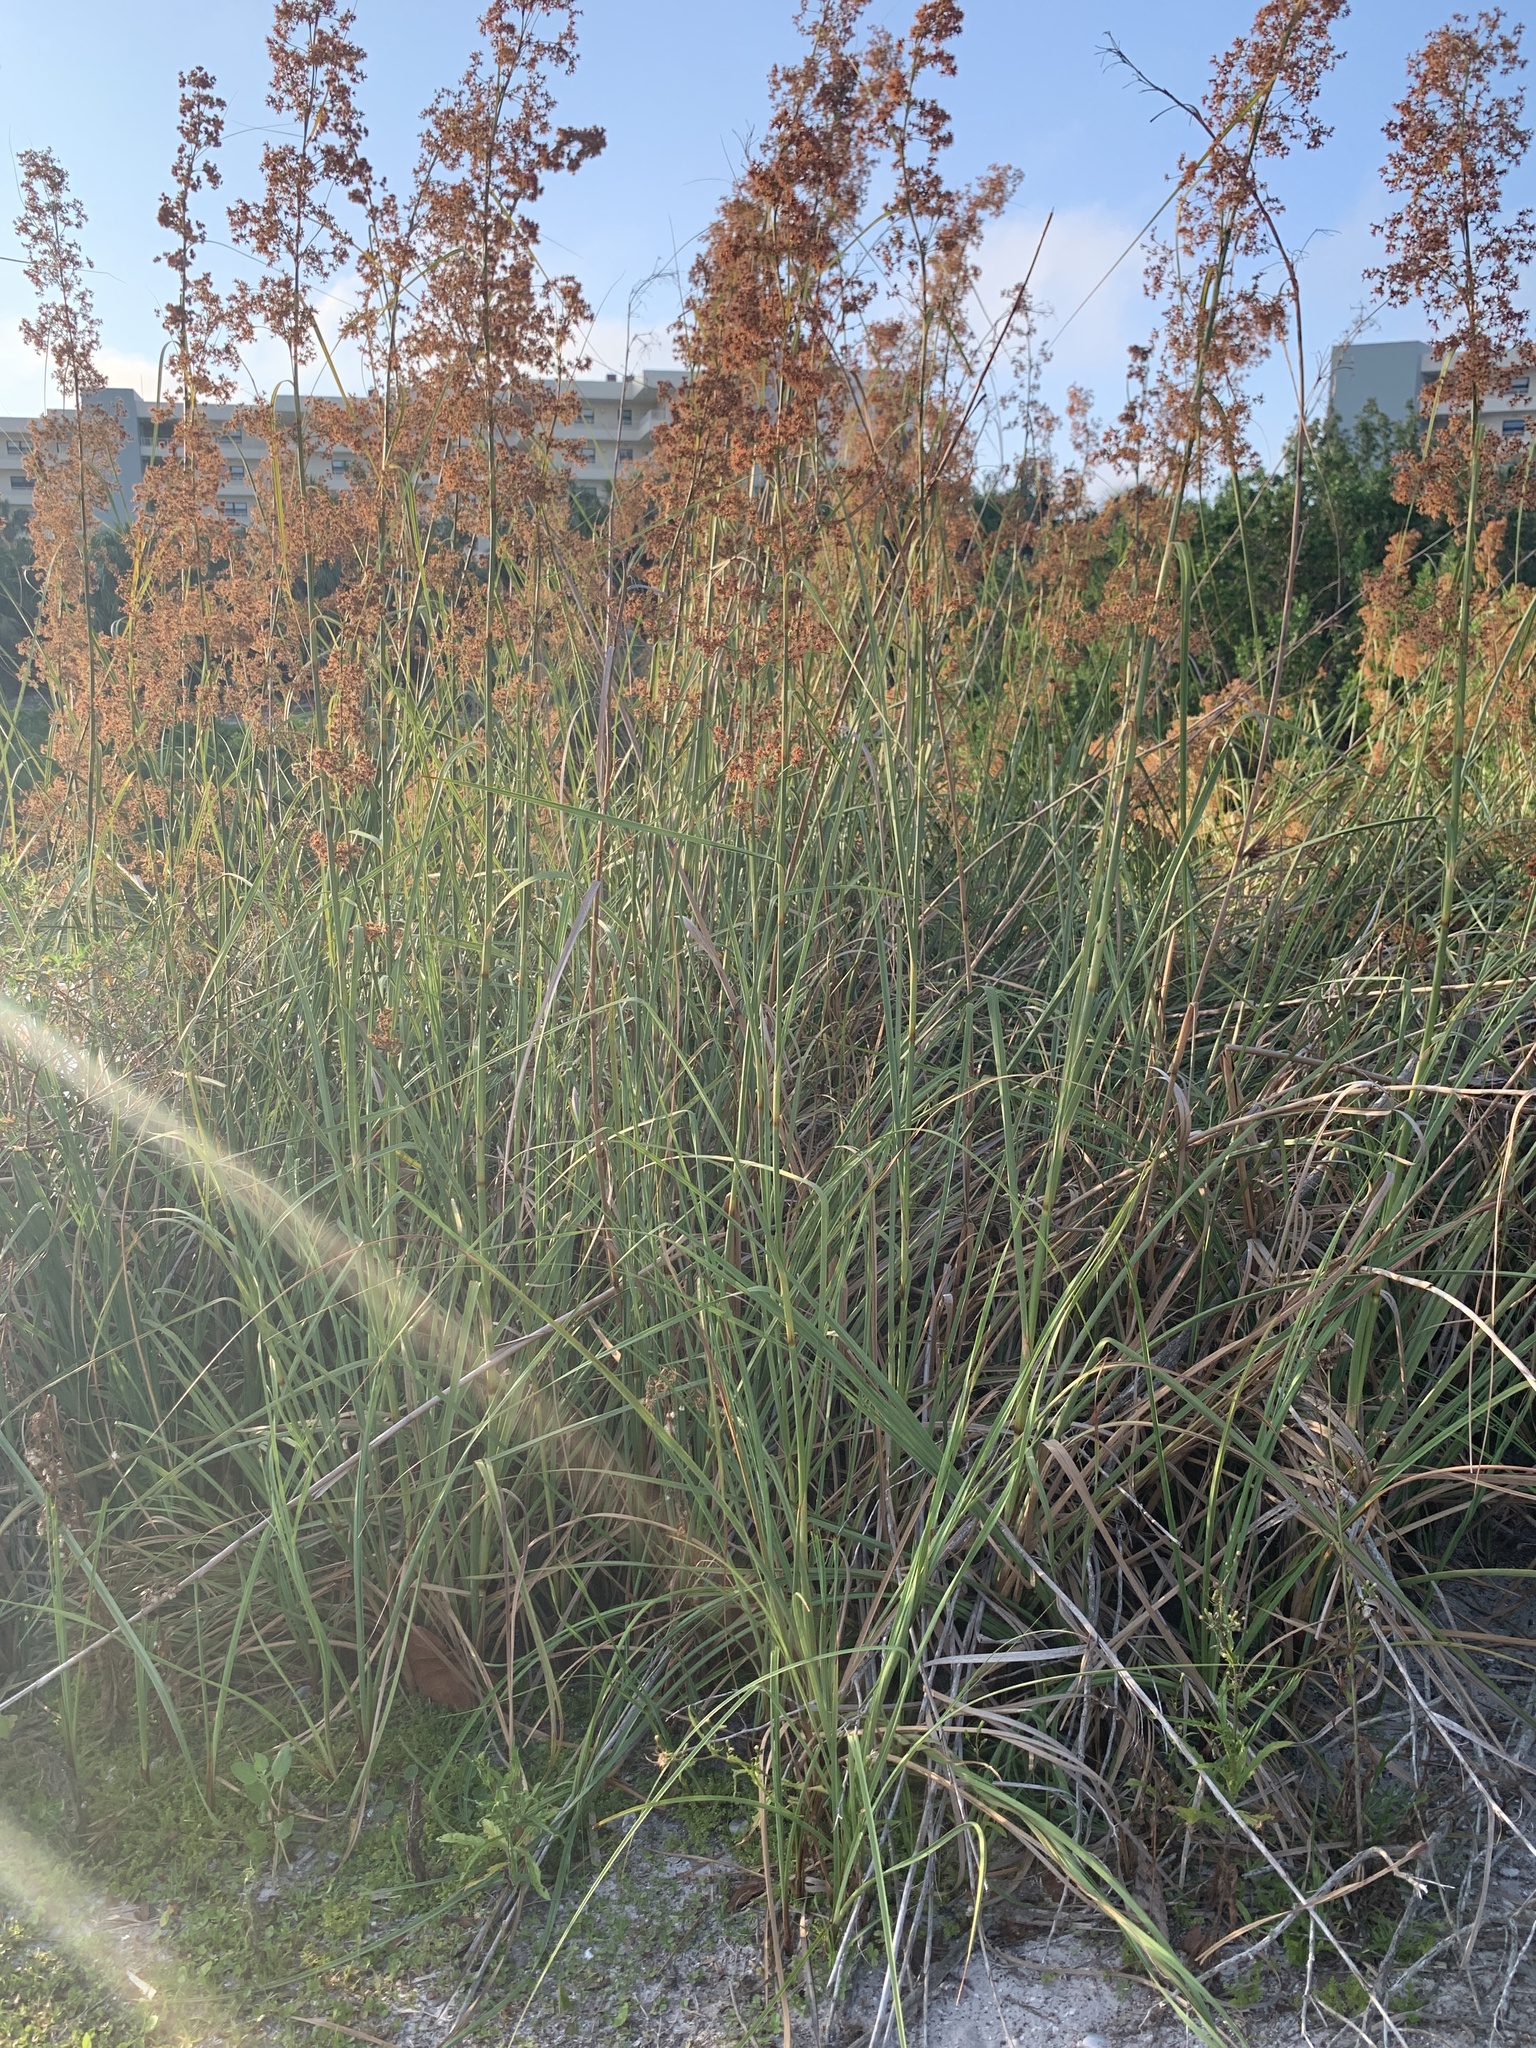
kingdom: Plantae
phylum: Tracheophyta
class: Liliopsida
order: Poales
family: Cyperaceae
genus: Cladium
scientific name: Cladium mariscus
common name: Great fen-sedge
